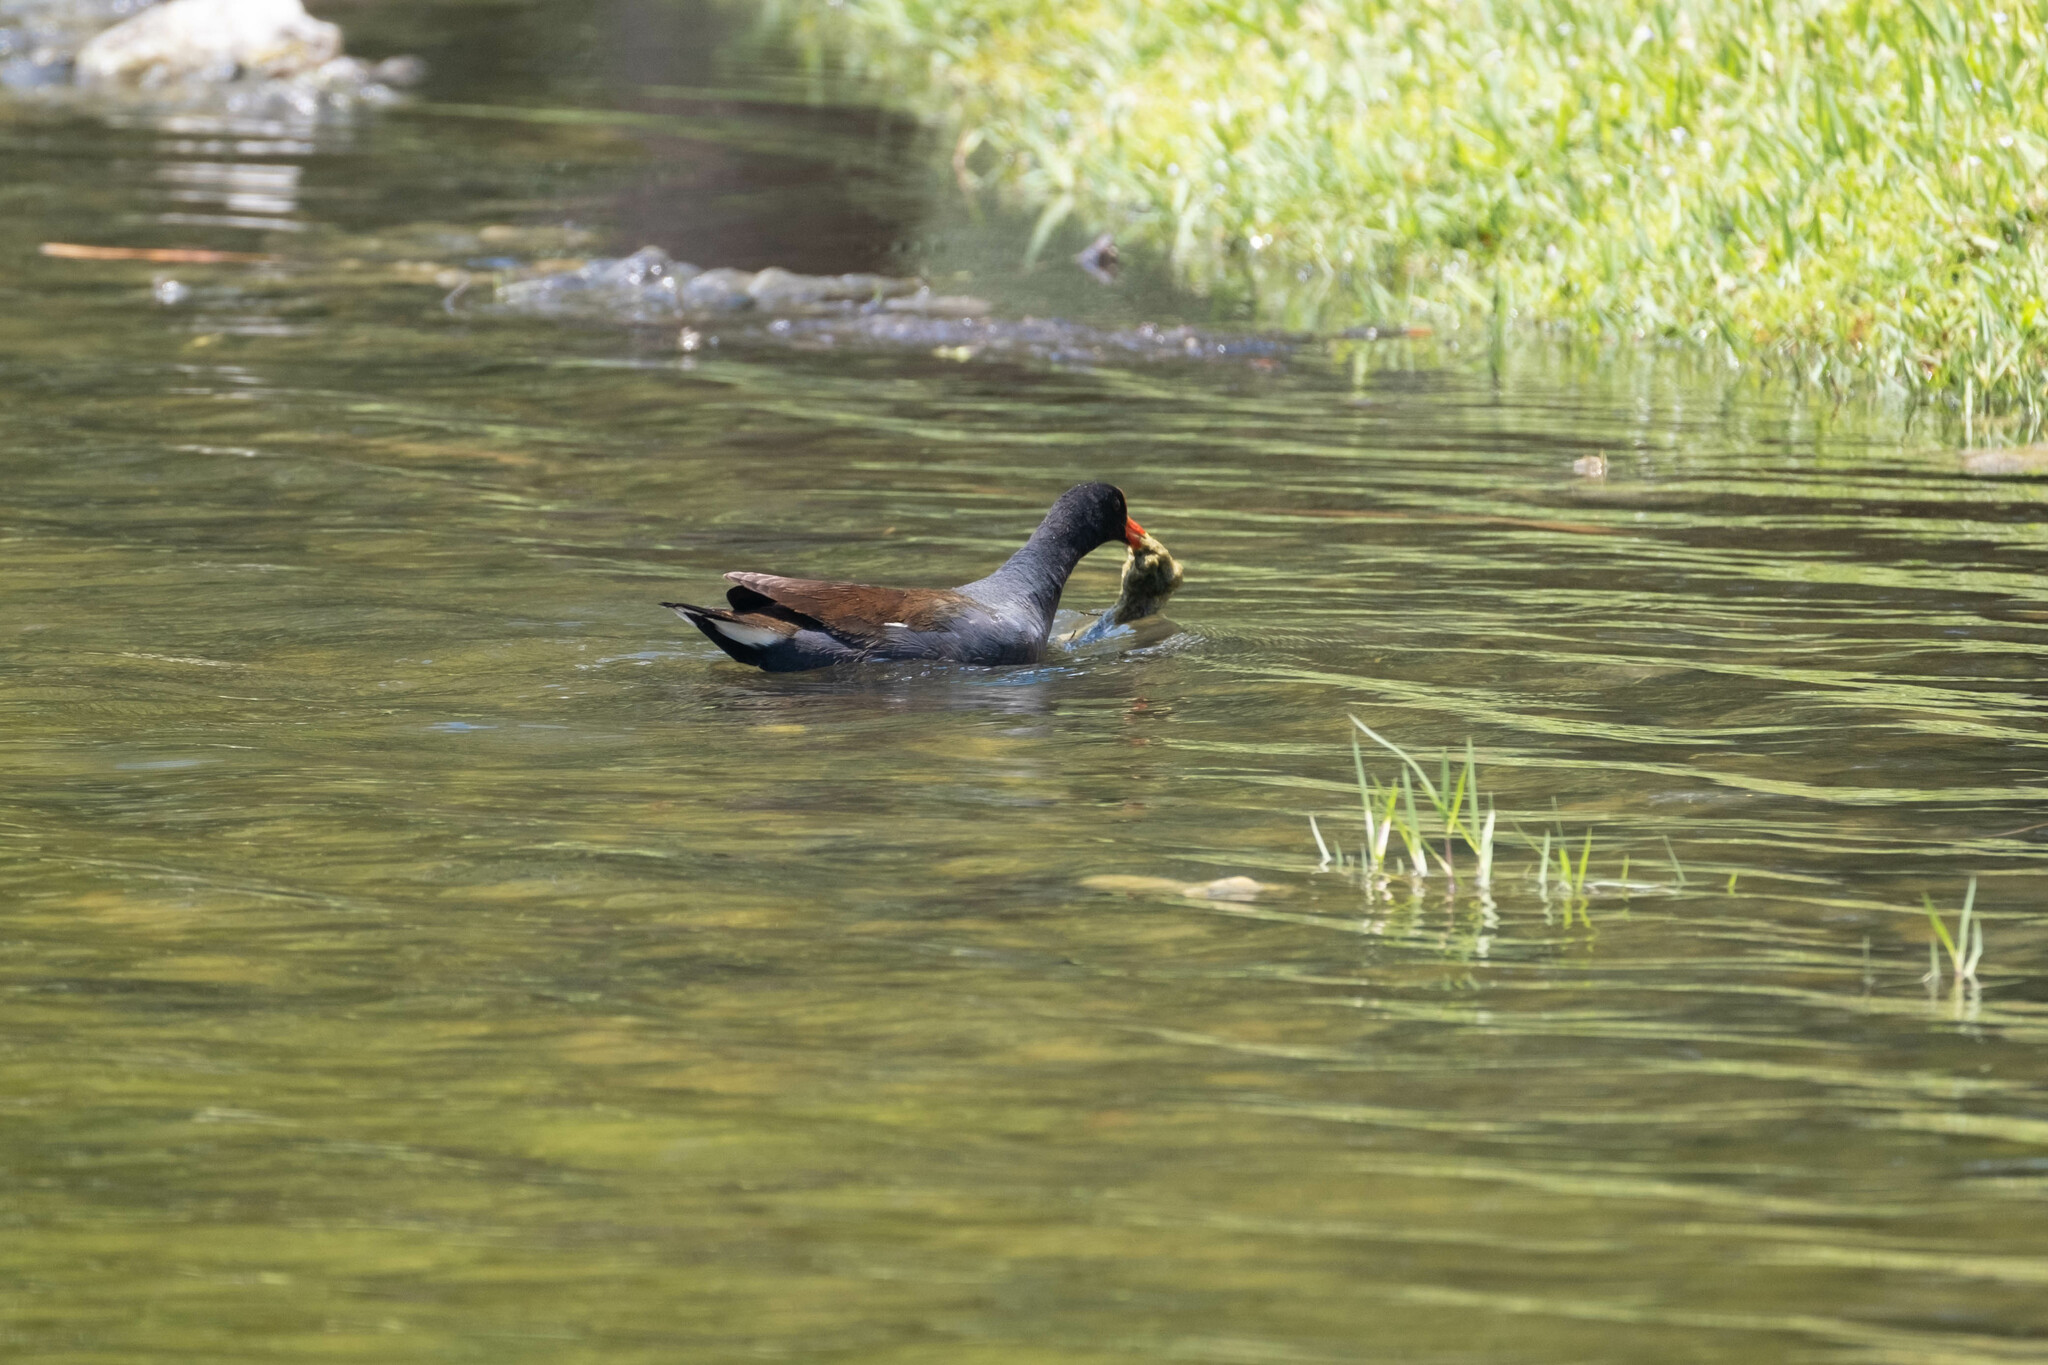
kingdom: Animalia
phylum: Chordata
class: Aves
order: Gruiformes
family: Rallidae
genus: Gallinula
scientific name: Gallinula chloropus
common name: Common moorhen
